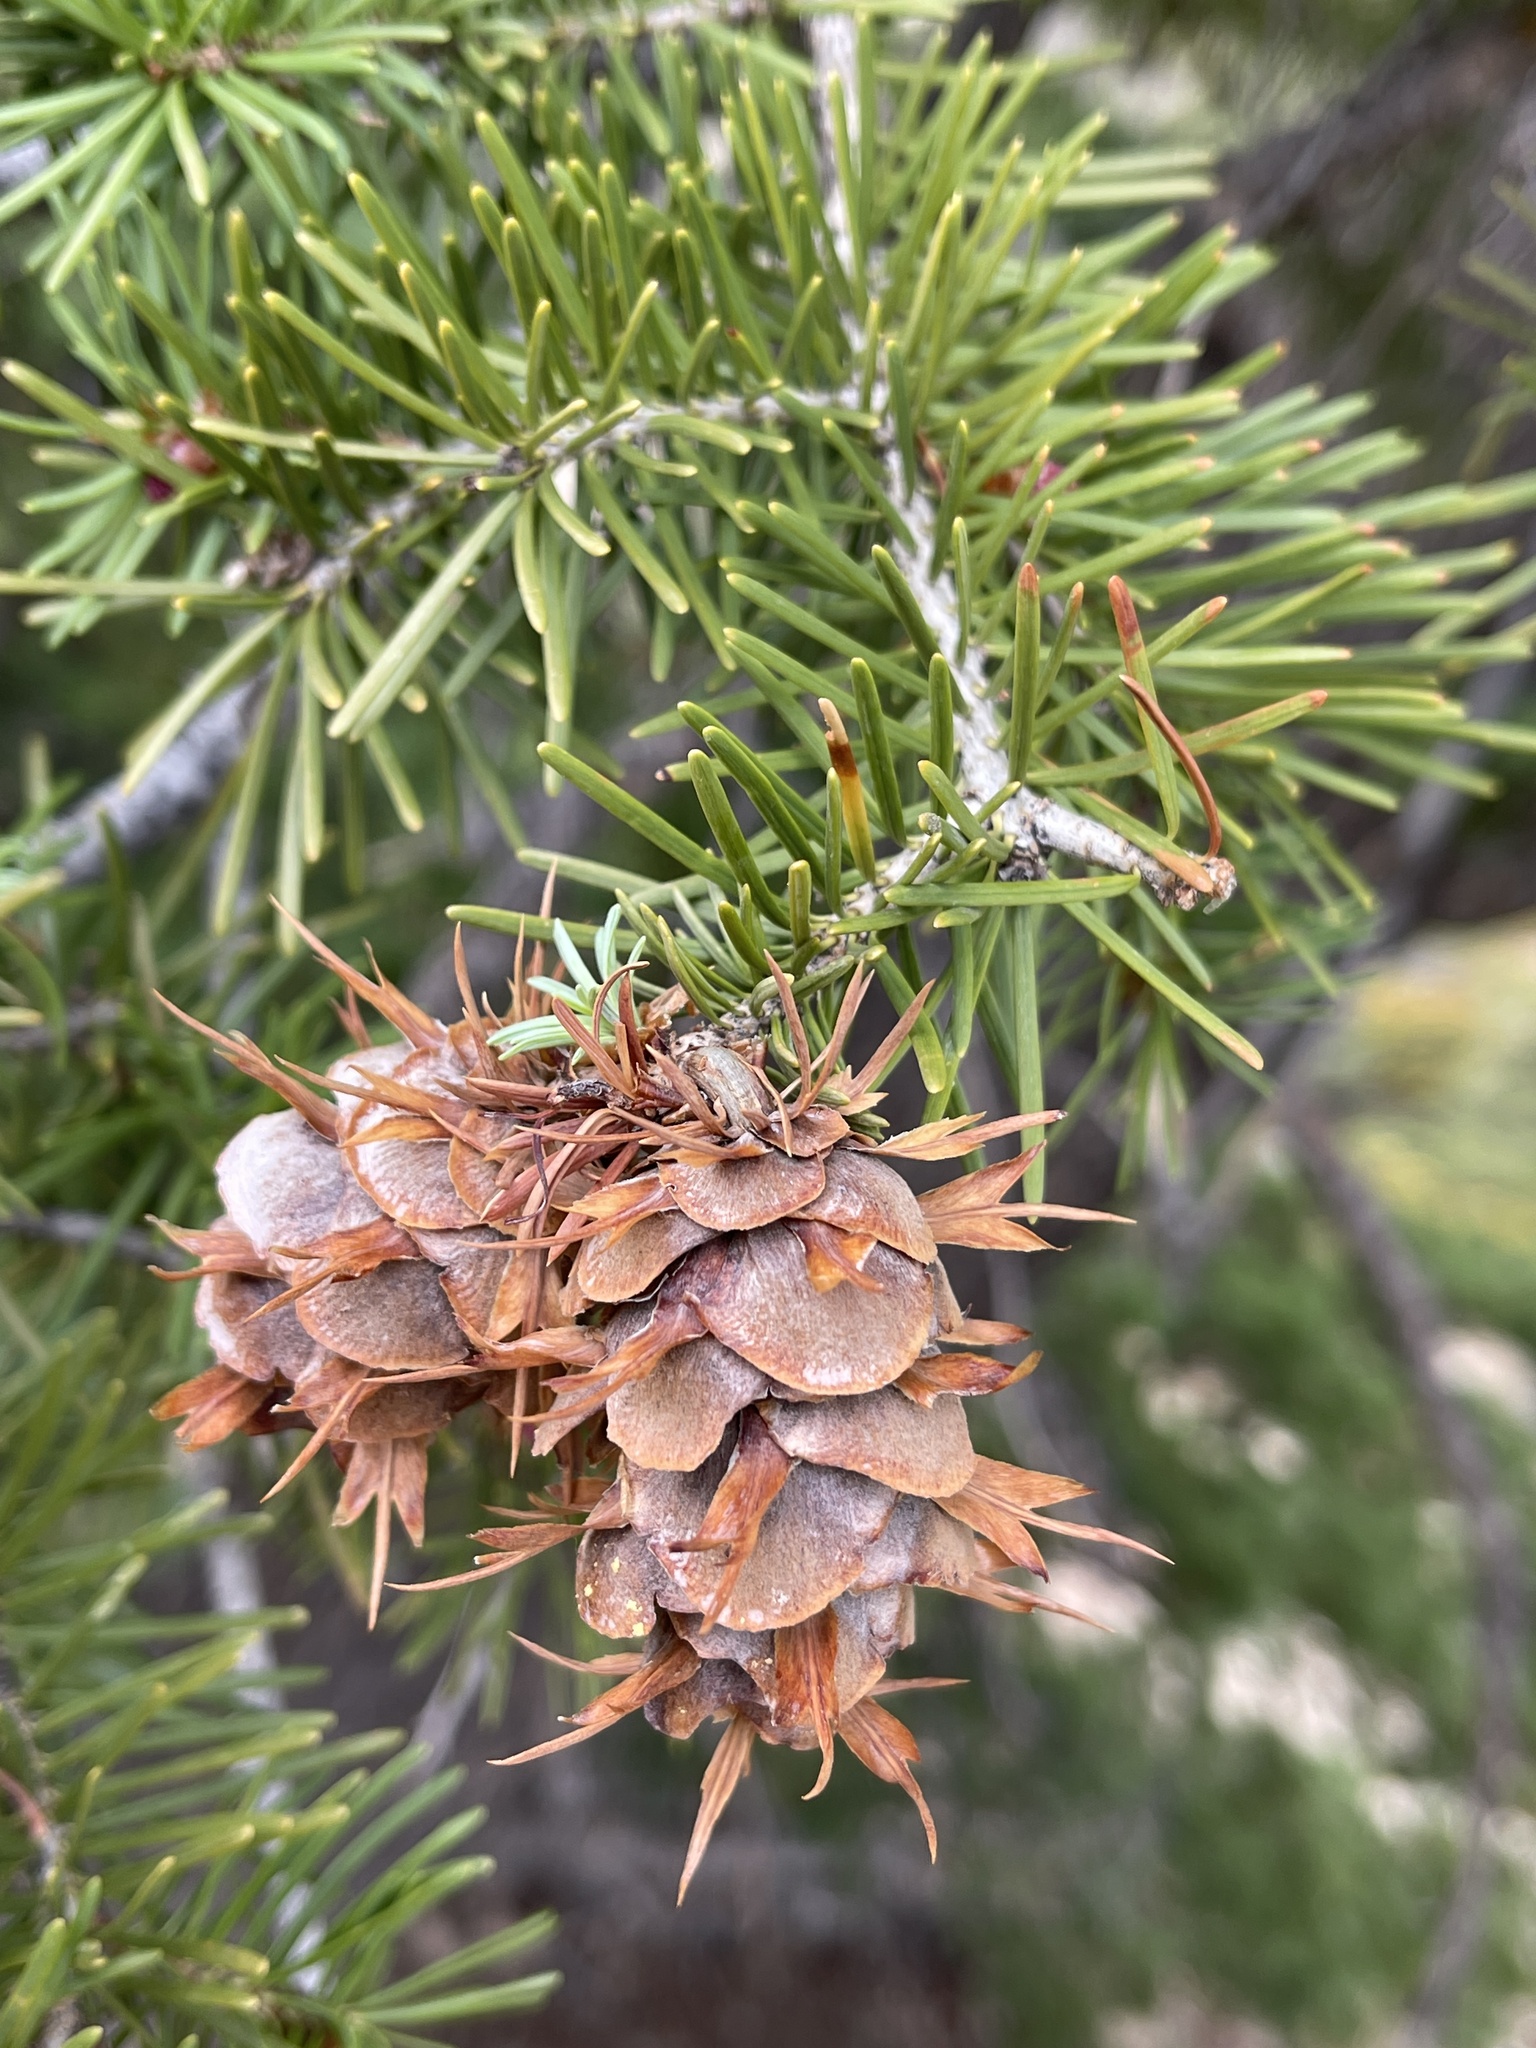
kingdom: Plantae
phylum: Tracheophyta
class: Pinopsida
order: Pinales
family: Pinaceae
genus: Pseudotsuga
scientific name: Pseudotsuga menziesii
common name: Douglas fir
